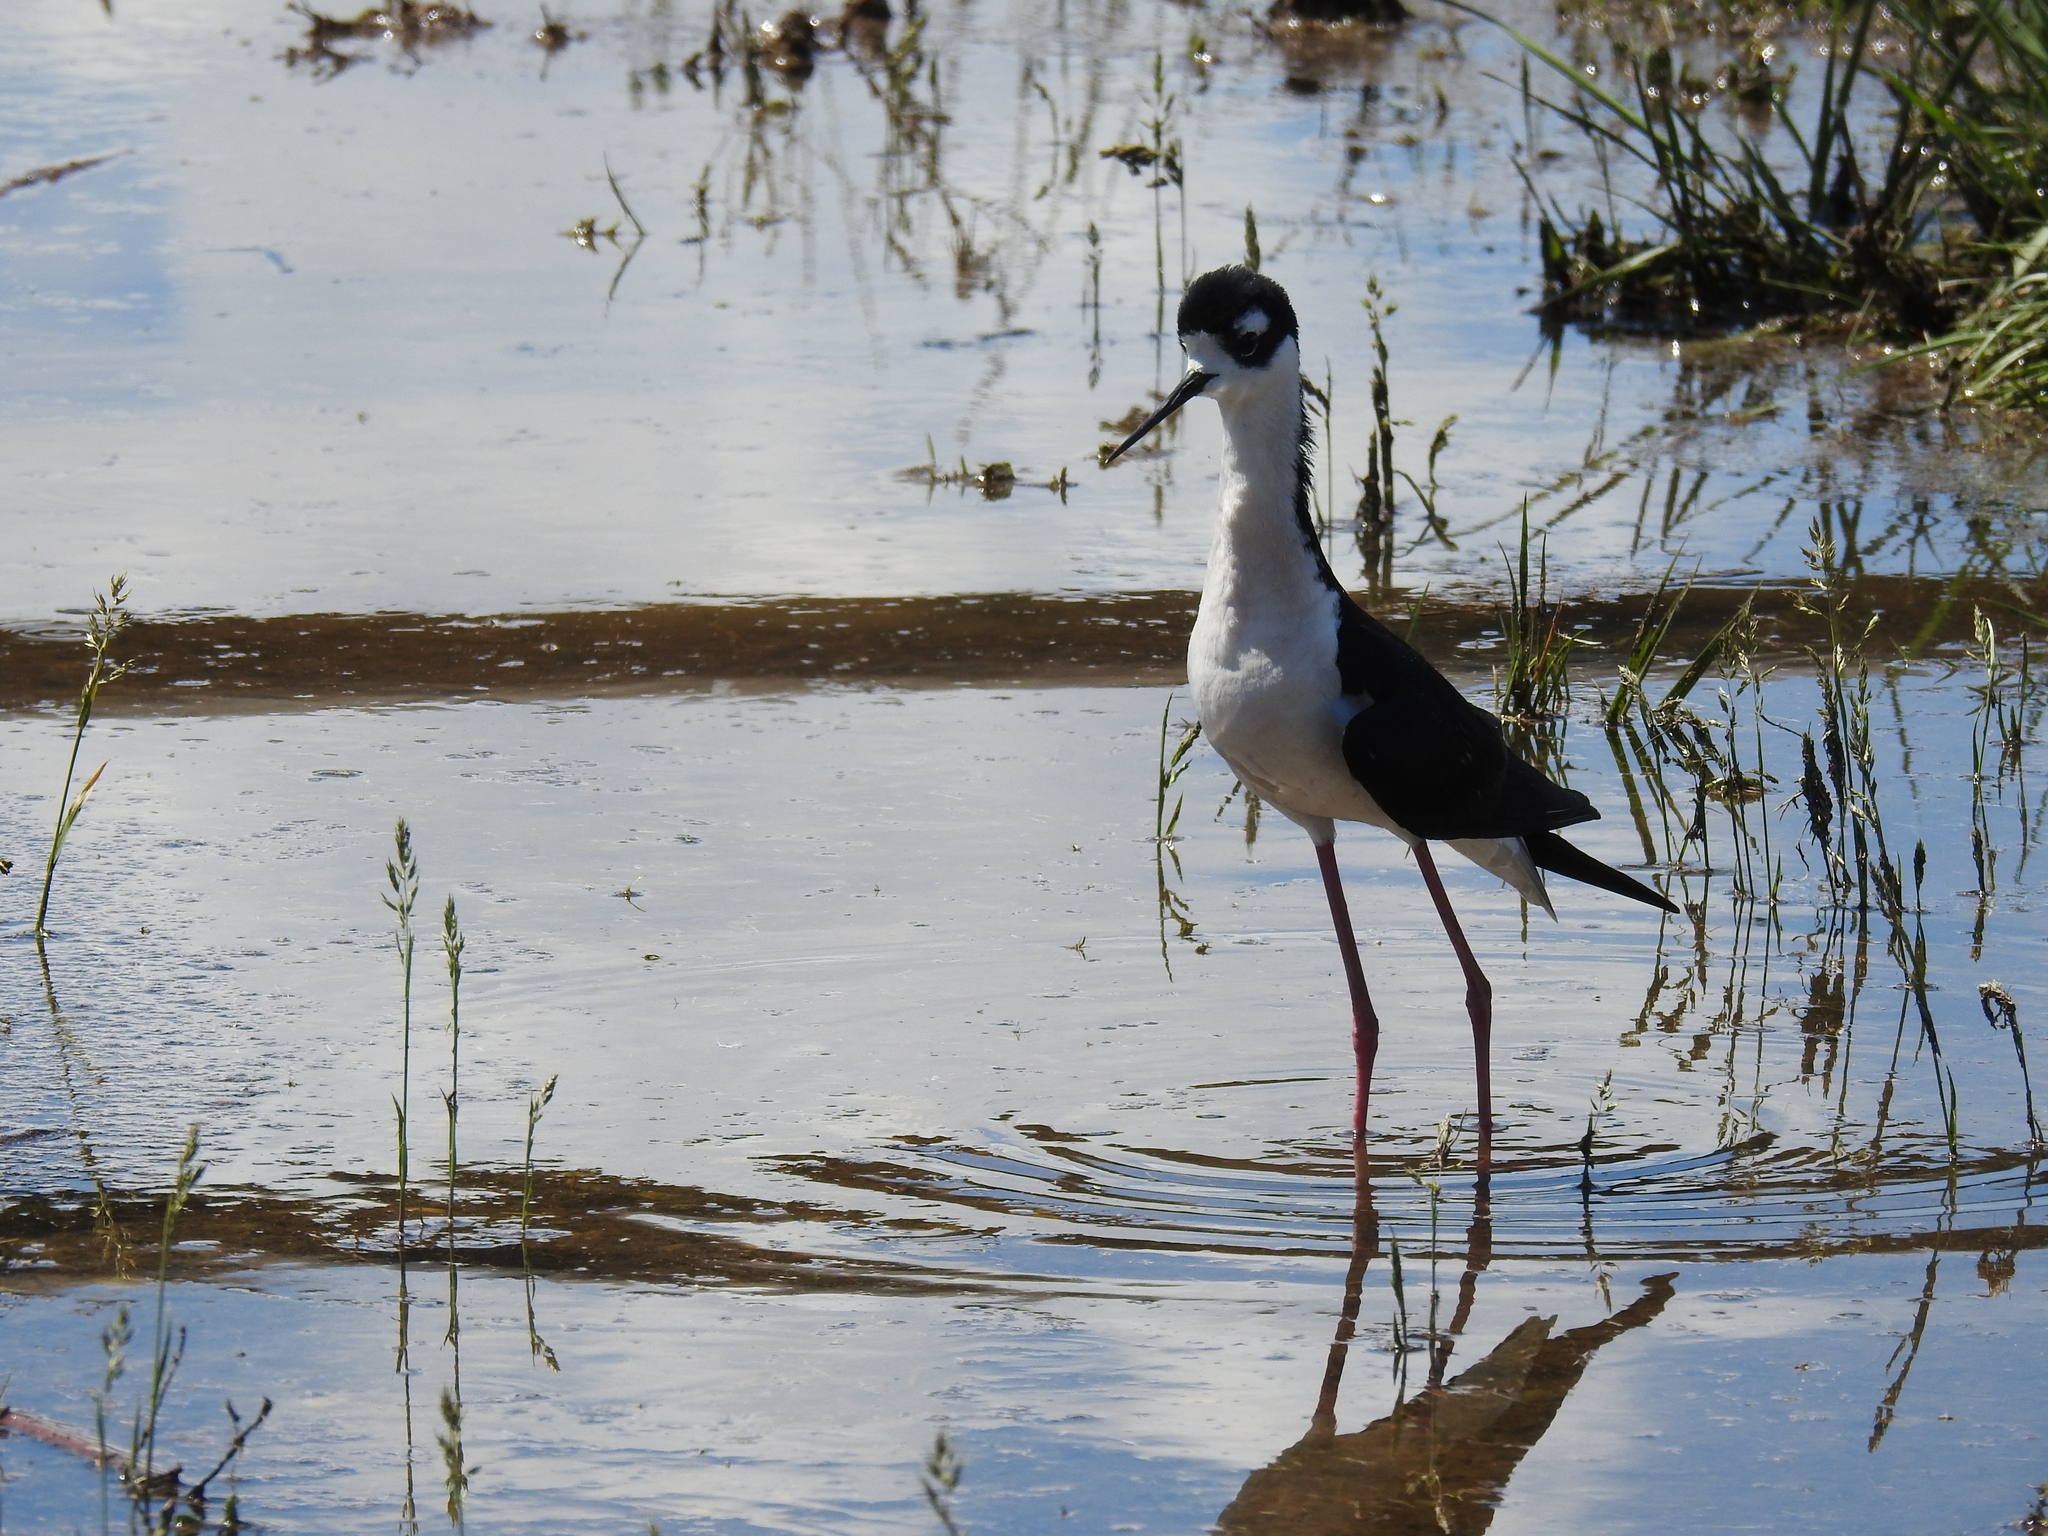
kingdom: Animalia
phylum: Chordata
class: Aves
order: Charadriiformes
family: Recurvirostridae
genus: Himantopus
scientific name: Himantopus mexicanus
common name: Black-necked stilt
